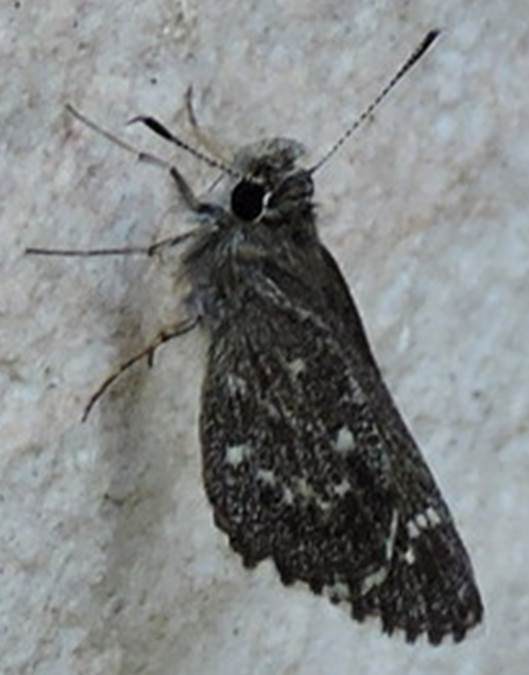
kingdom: Animalia
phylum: Arthropoda
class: Insecta
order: Lepidoptera
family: Hesperiidae
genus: Mastor
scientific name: Mastor celia
